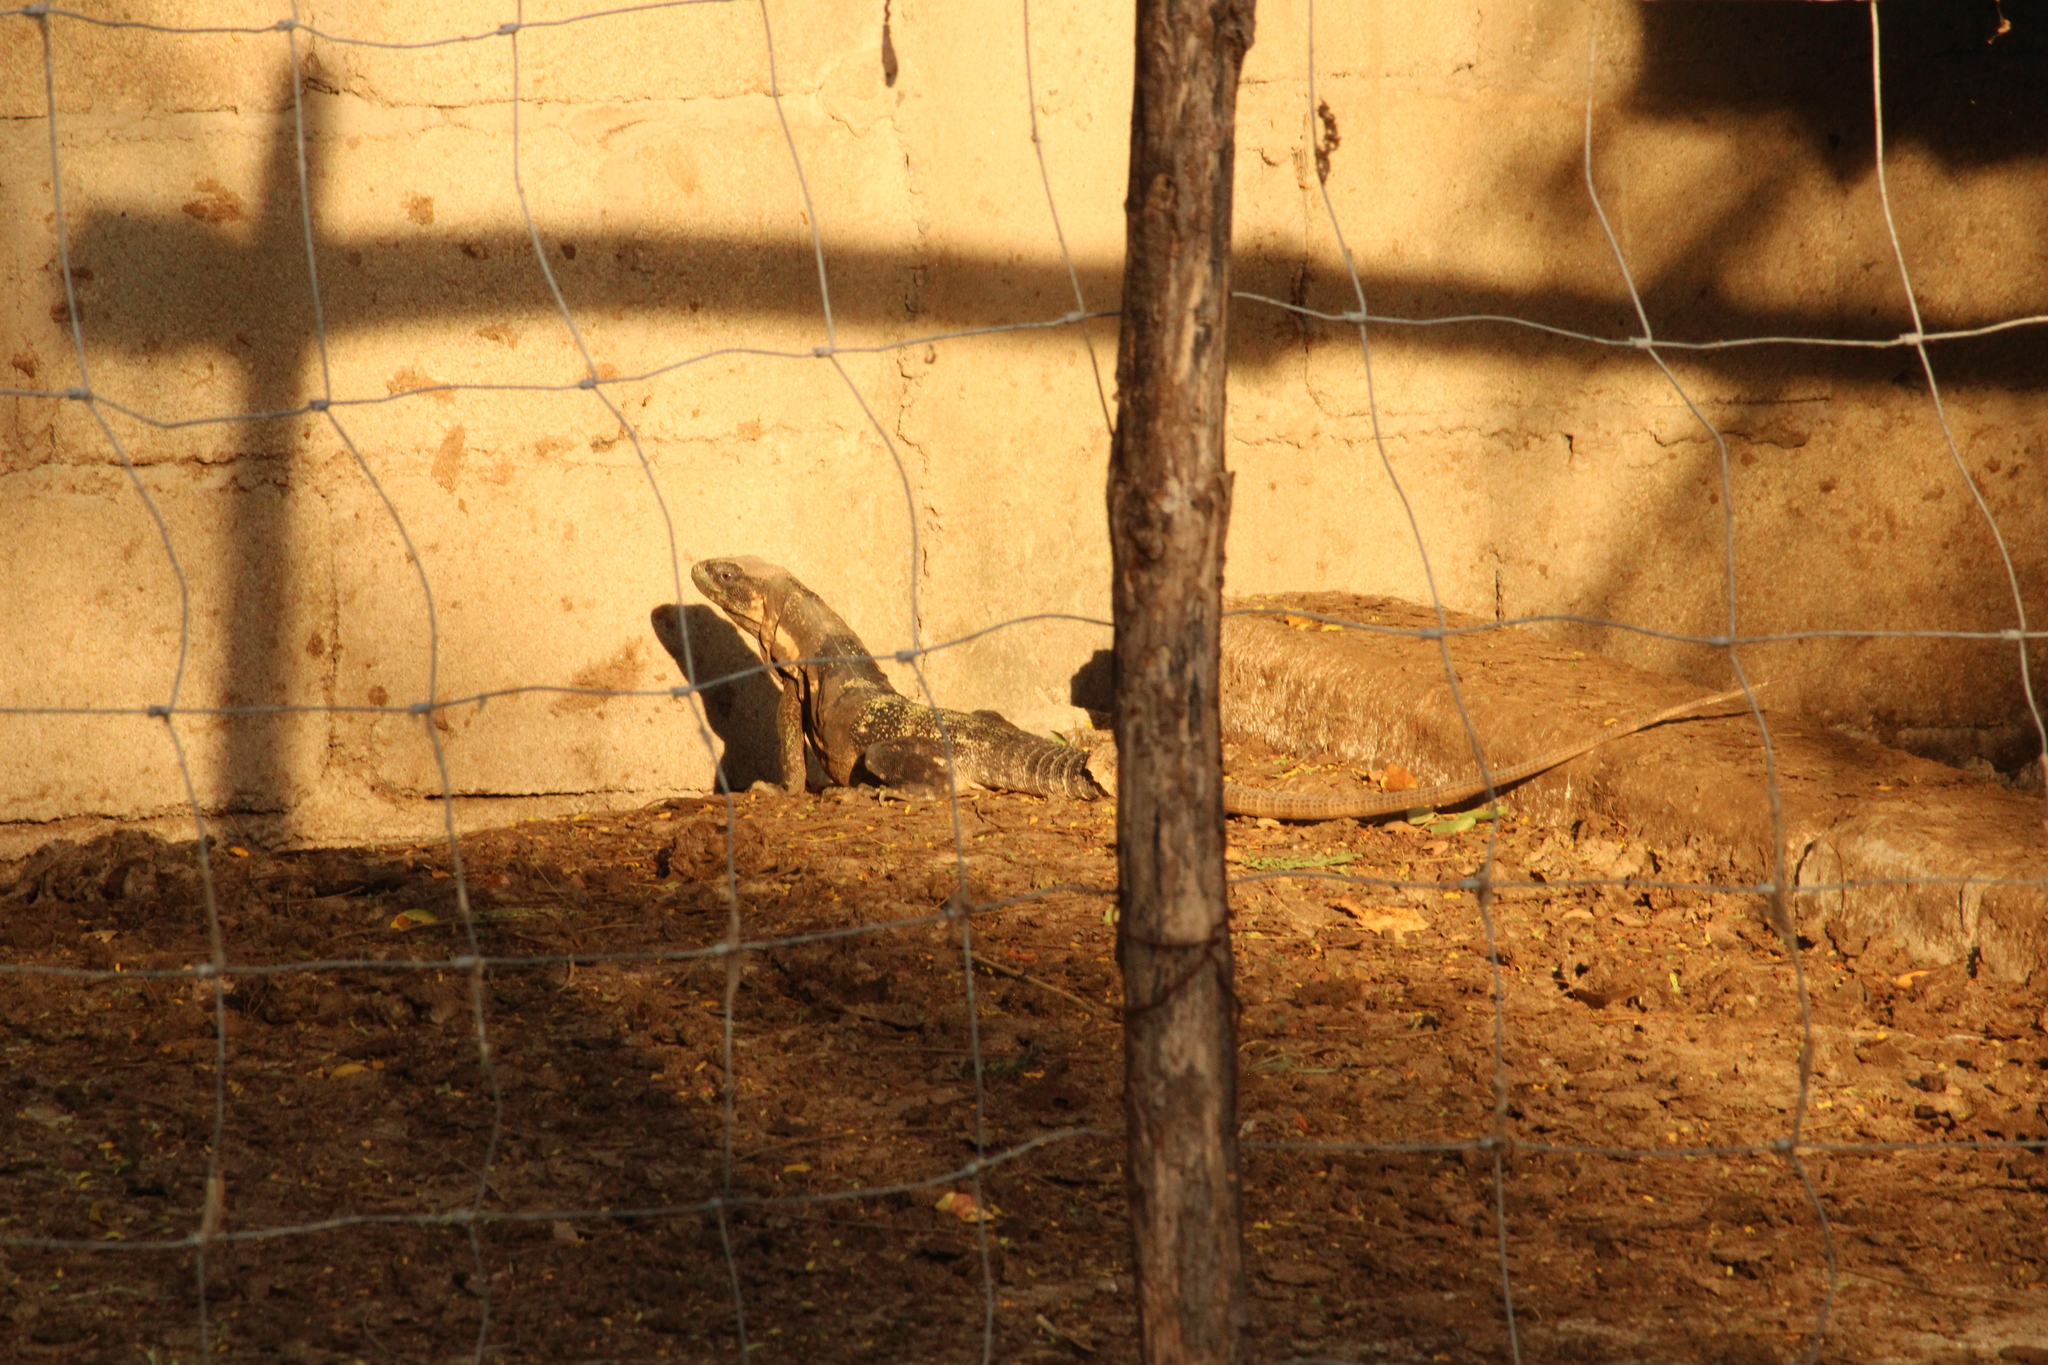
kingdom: Animalia
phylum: Chordata
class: Squamata
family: Iguanidae
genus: Ctenosaura
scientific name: Ctenosaura pectinata
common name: Guerreran spiny-tailed iguana
